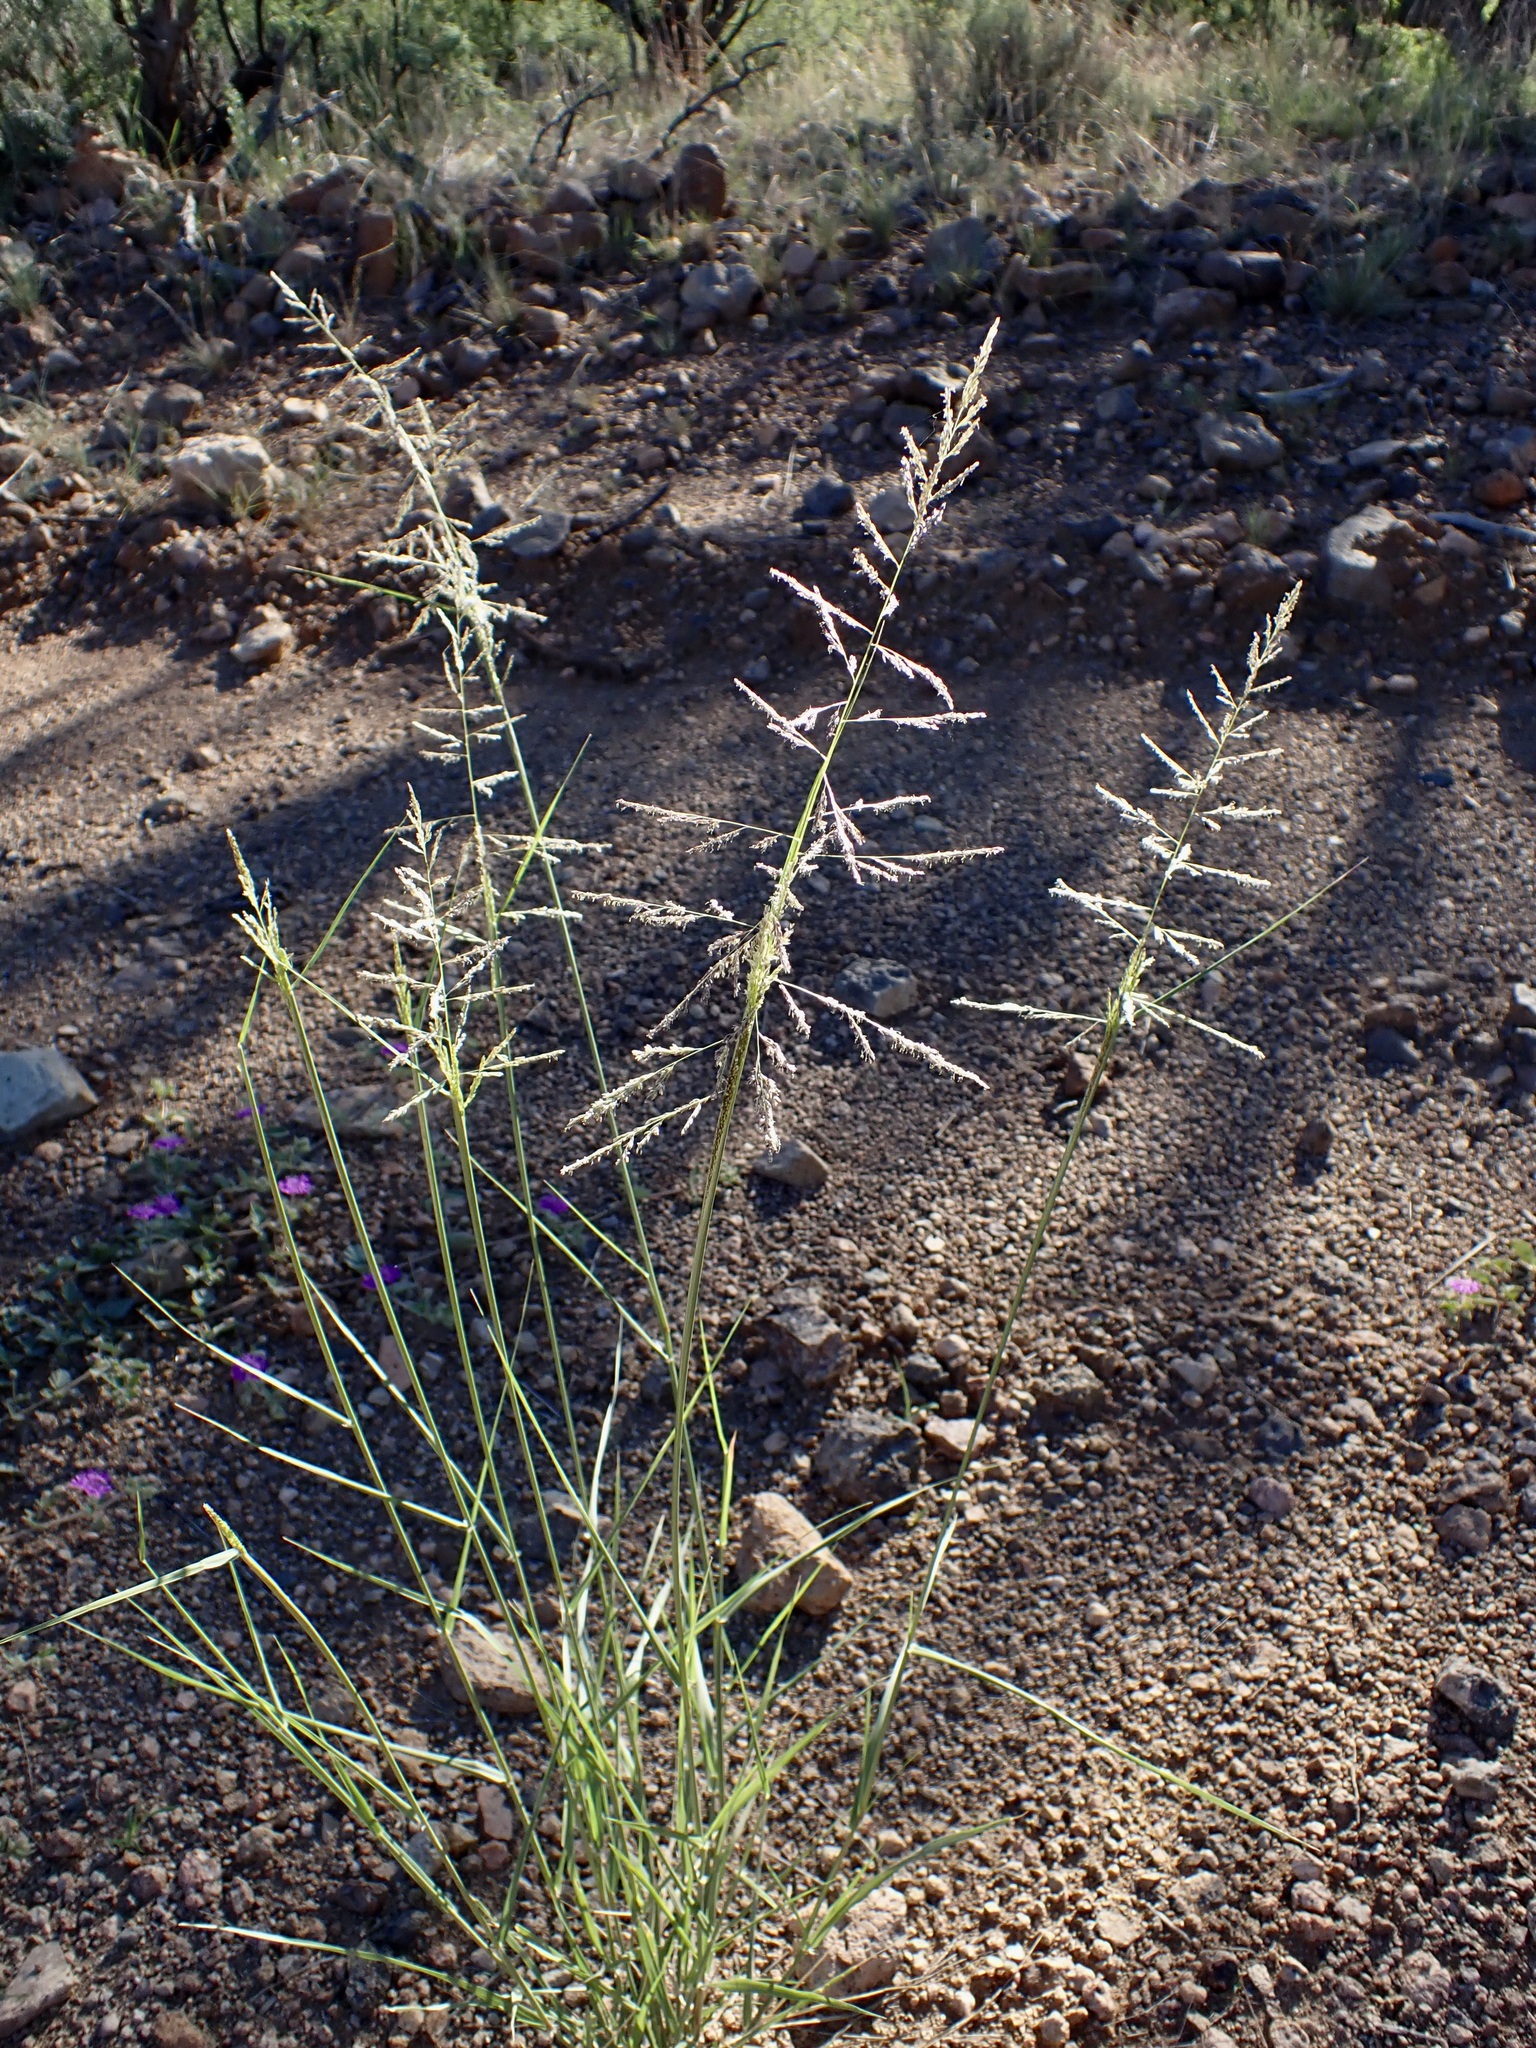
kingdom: Plantae
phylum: Tracheophyta
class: Liliopsida
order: Poales
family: Poaceae
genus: Sporobolus
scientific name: Sporobolus cryptandrus
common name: Sand dropseed
